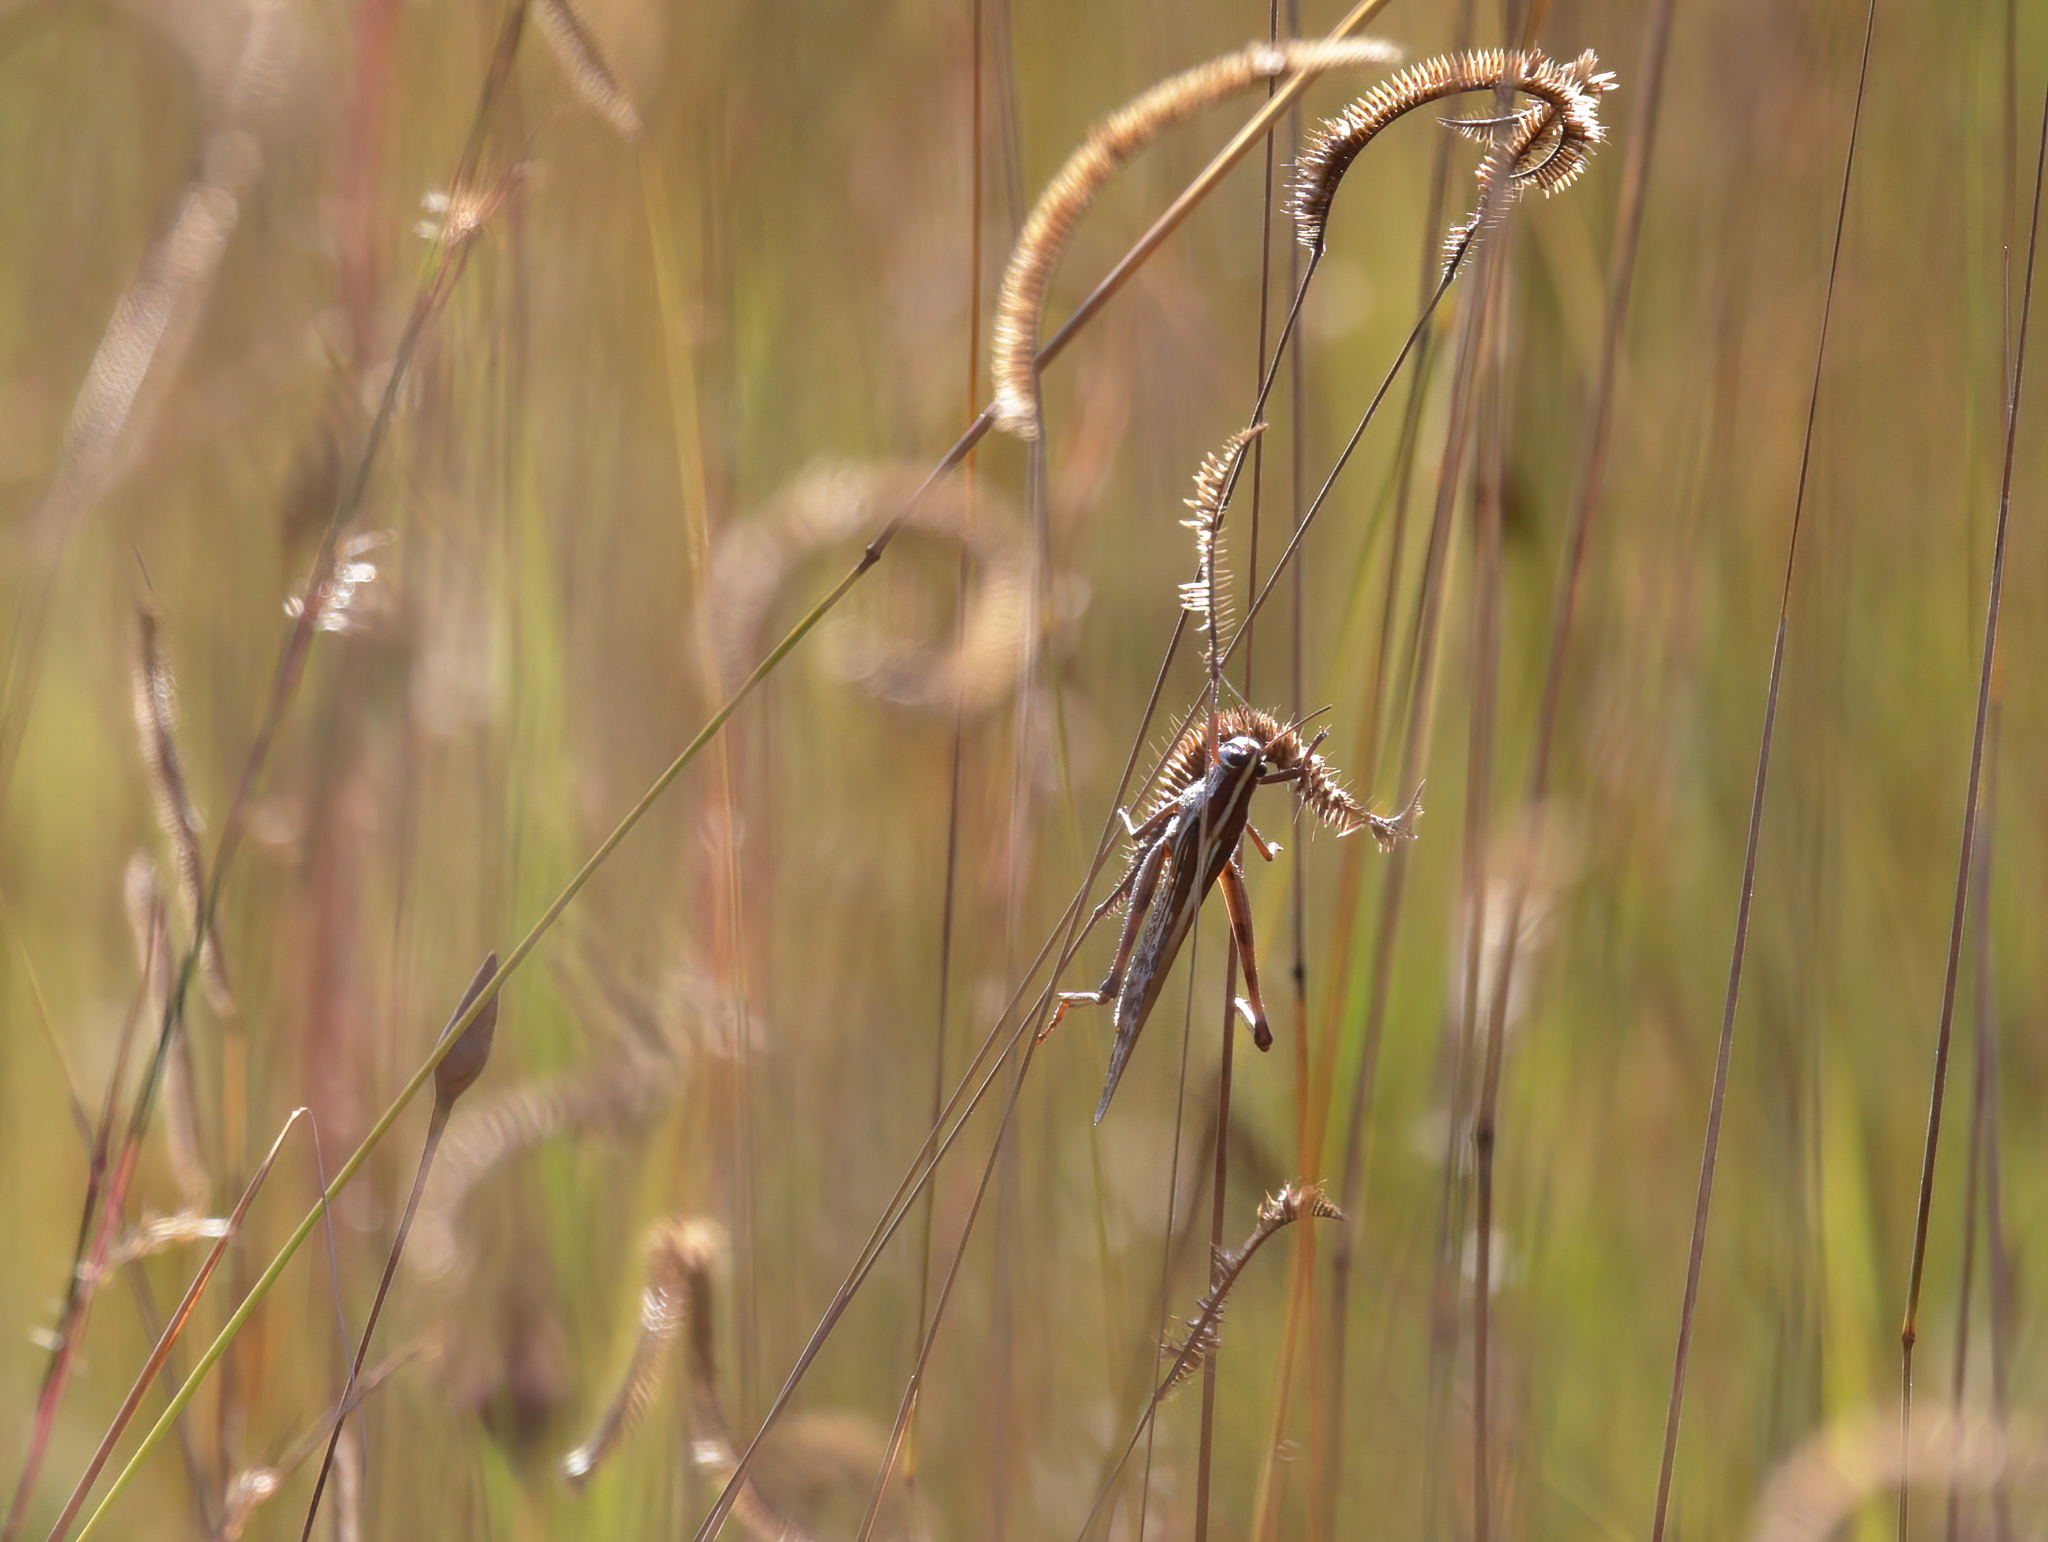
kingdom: Animalia
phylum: Arthropoda
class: Insecta
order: Orthoptera
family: Acrididae
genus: Schistocerca
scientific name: Schistocerca americana
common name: American bird locust
